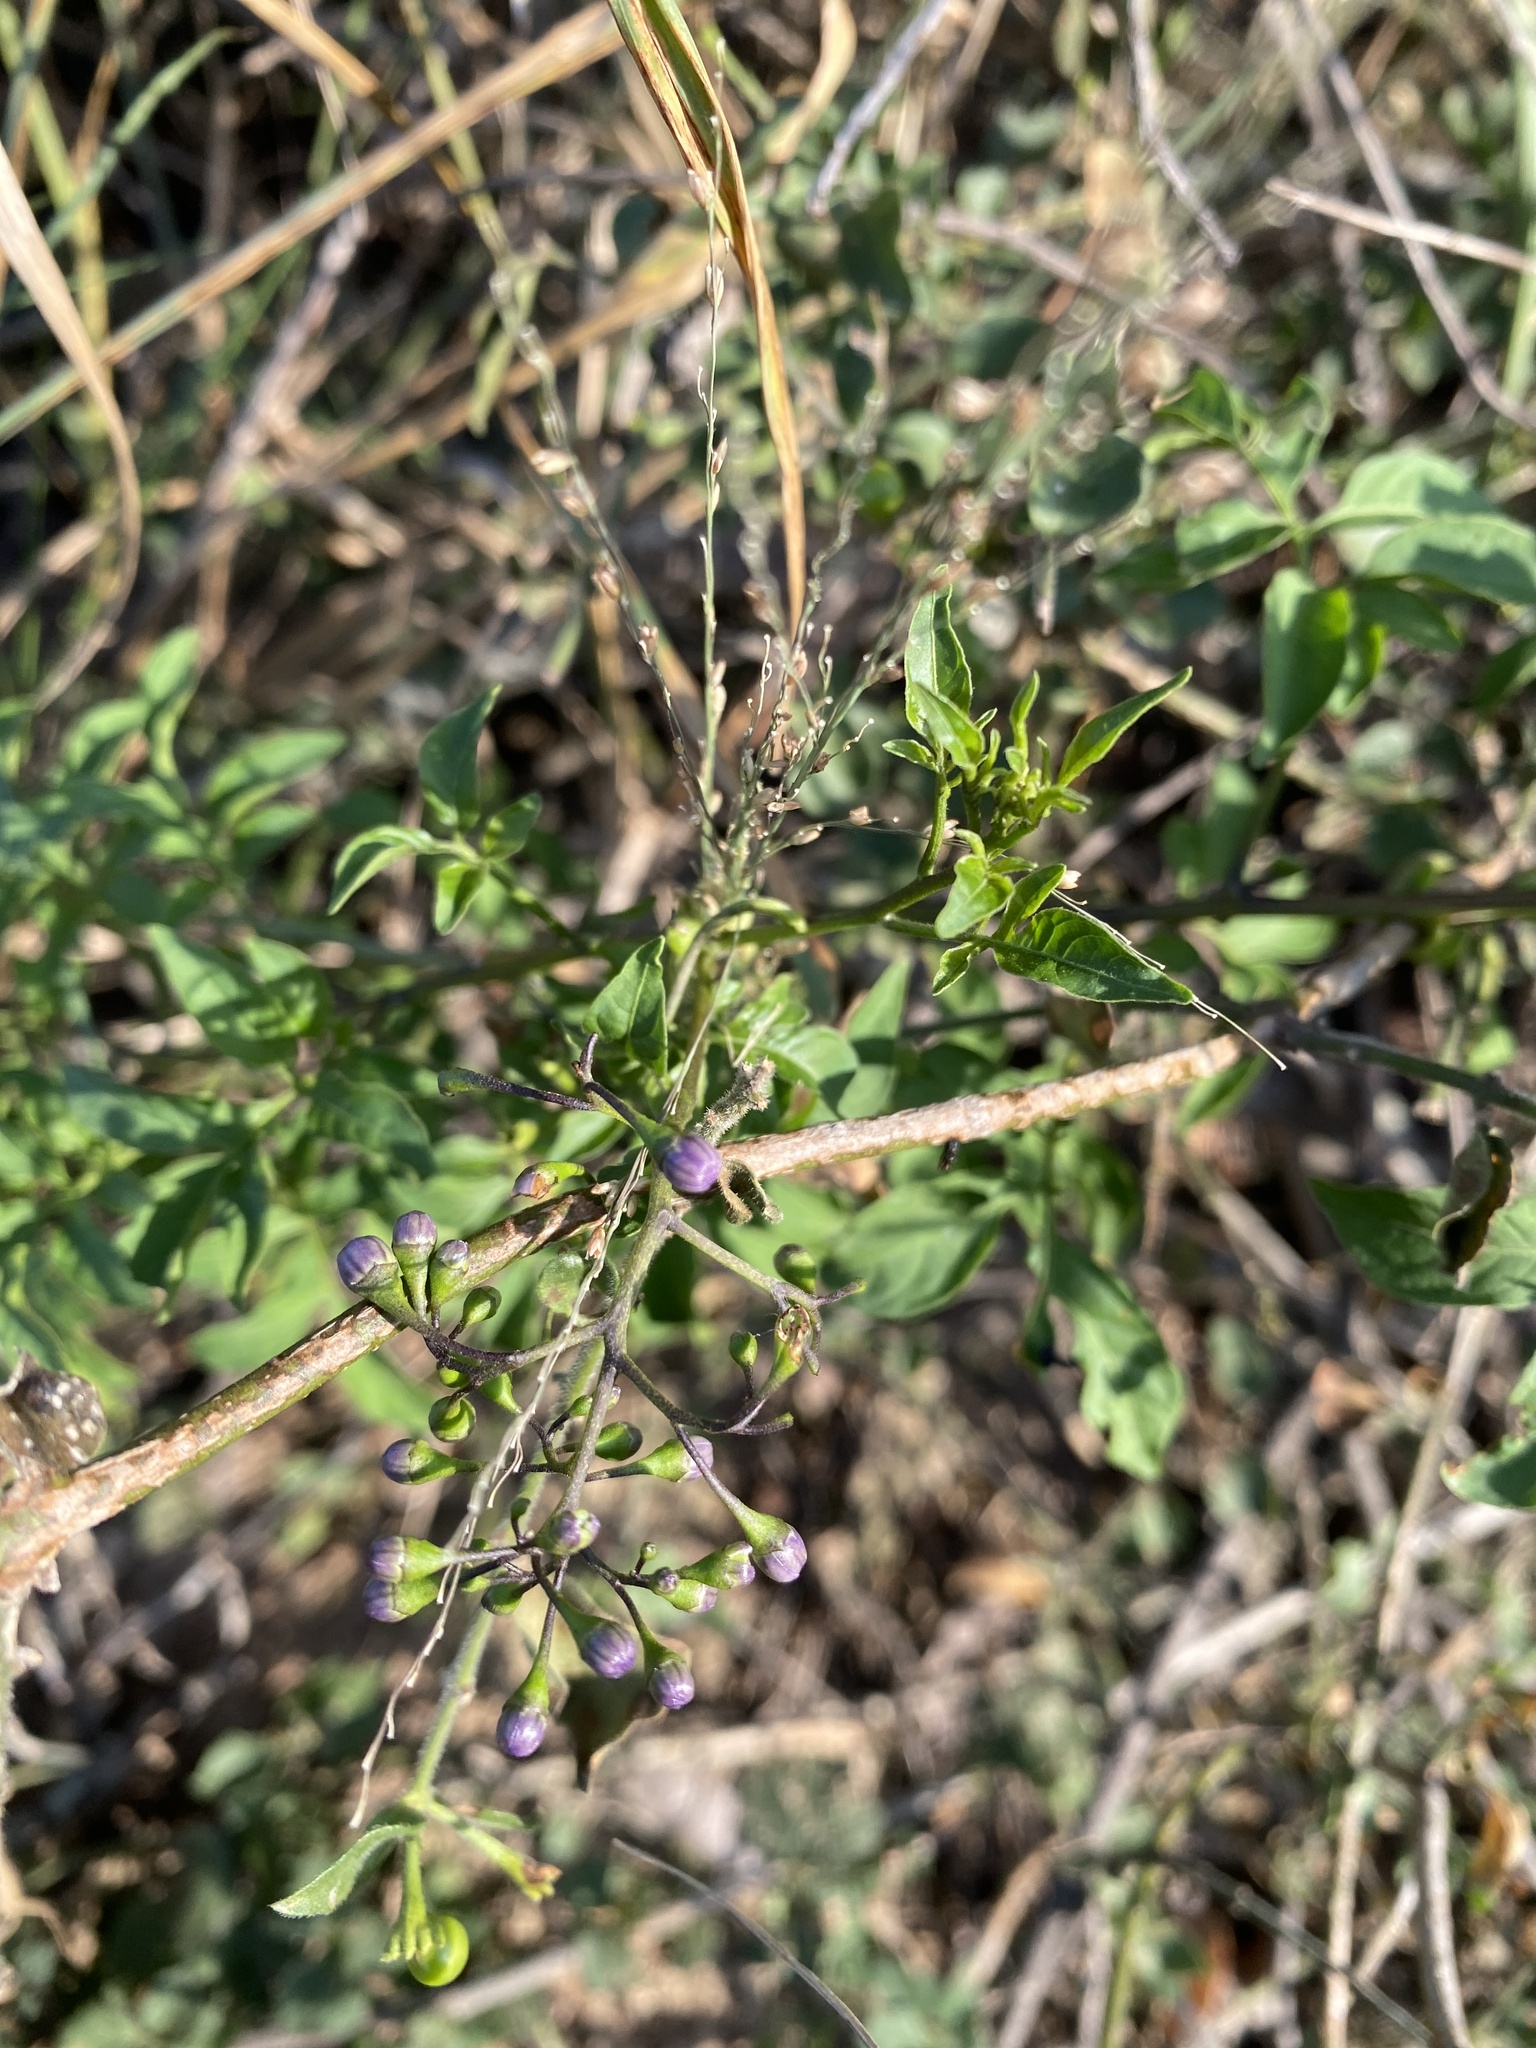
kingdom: Plantae
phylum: Tracheophyta
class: Magnoliopsida
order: Solanales
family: Solanaceae
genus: Solanum
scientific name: Solanum seaforthianum
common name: Brazilian nightshade
